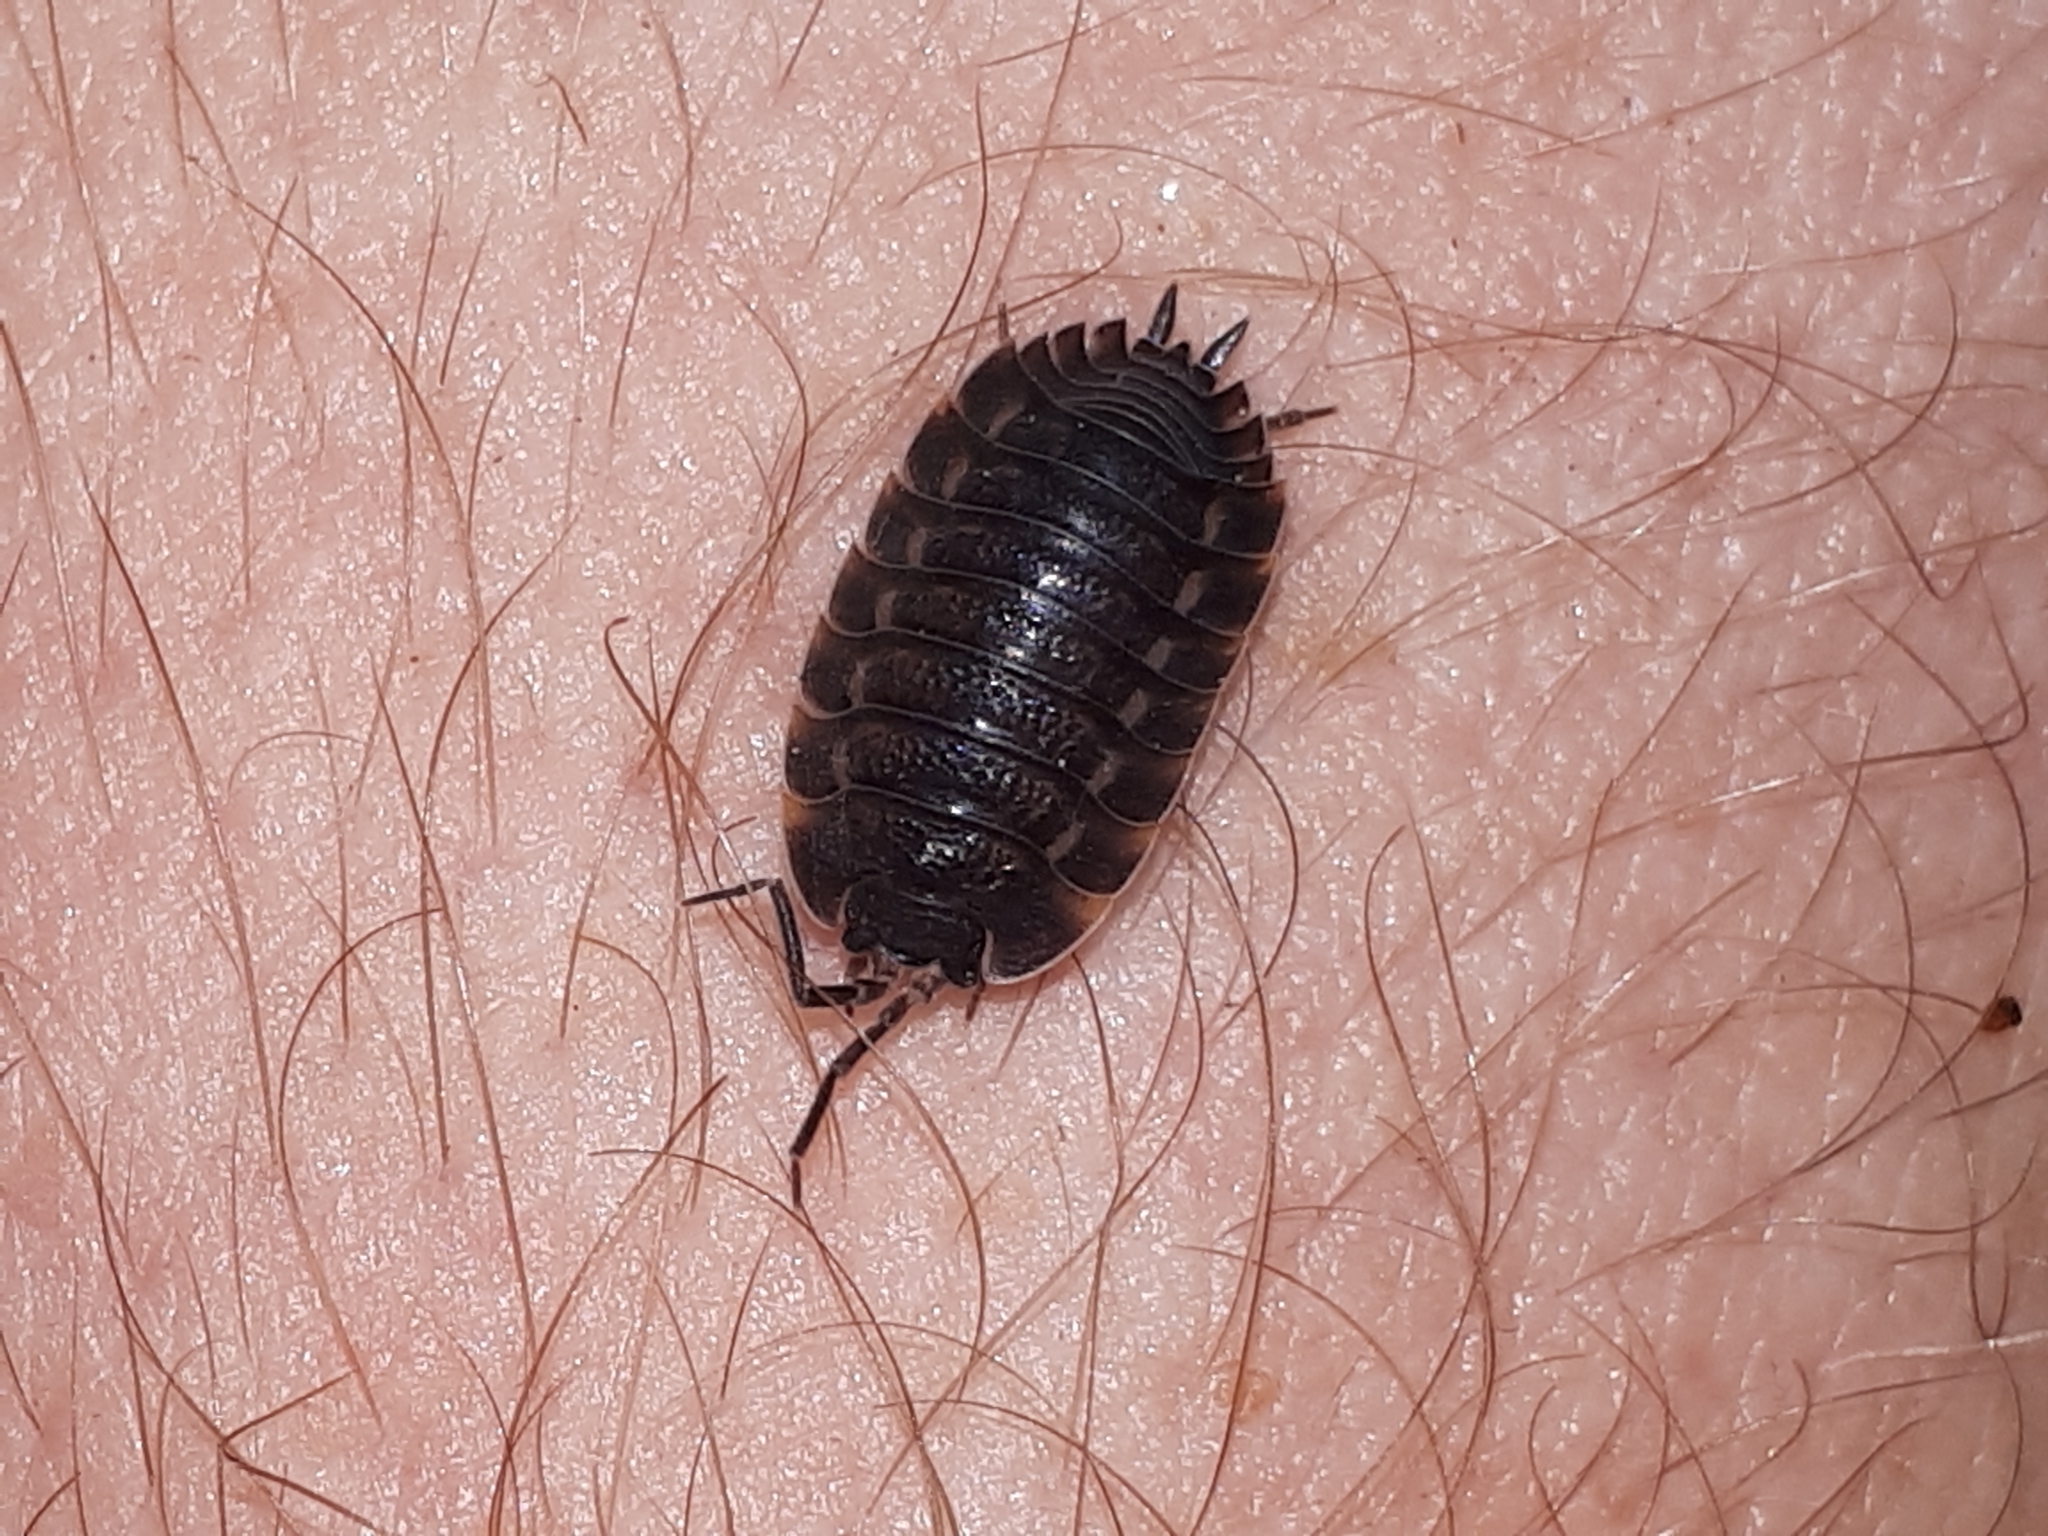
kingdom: Animalia
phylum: Arthropoda
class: Malacostraca
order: Isopoda
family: Trachelipodidae
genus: Trachelipus
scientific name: Trachelipus ratzeburgii
